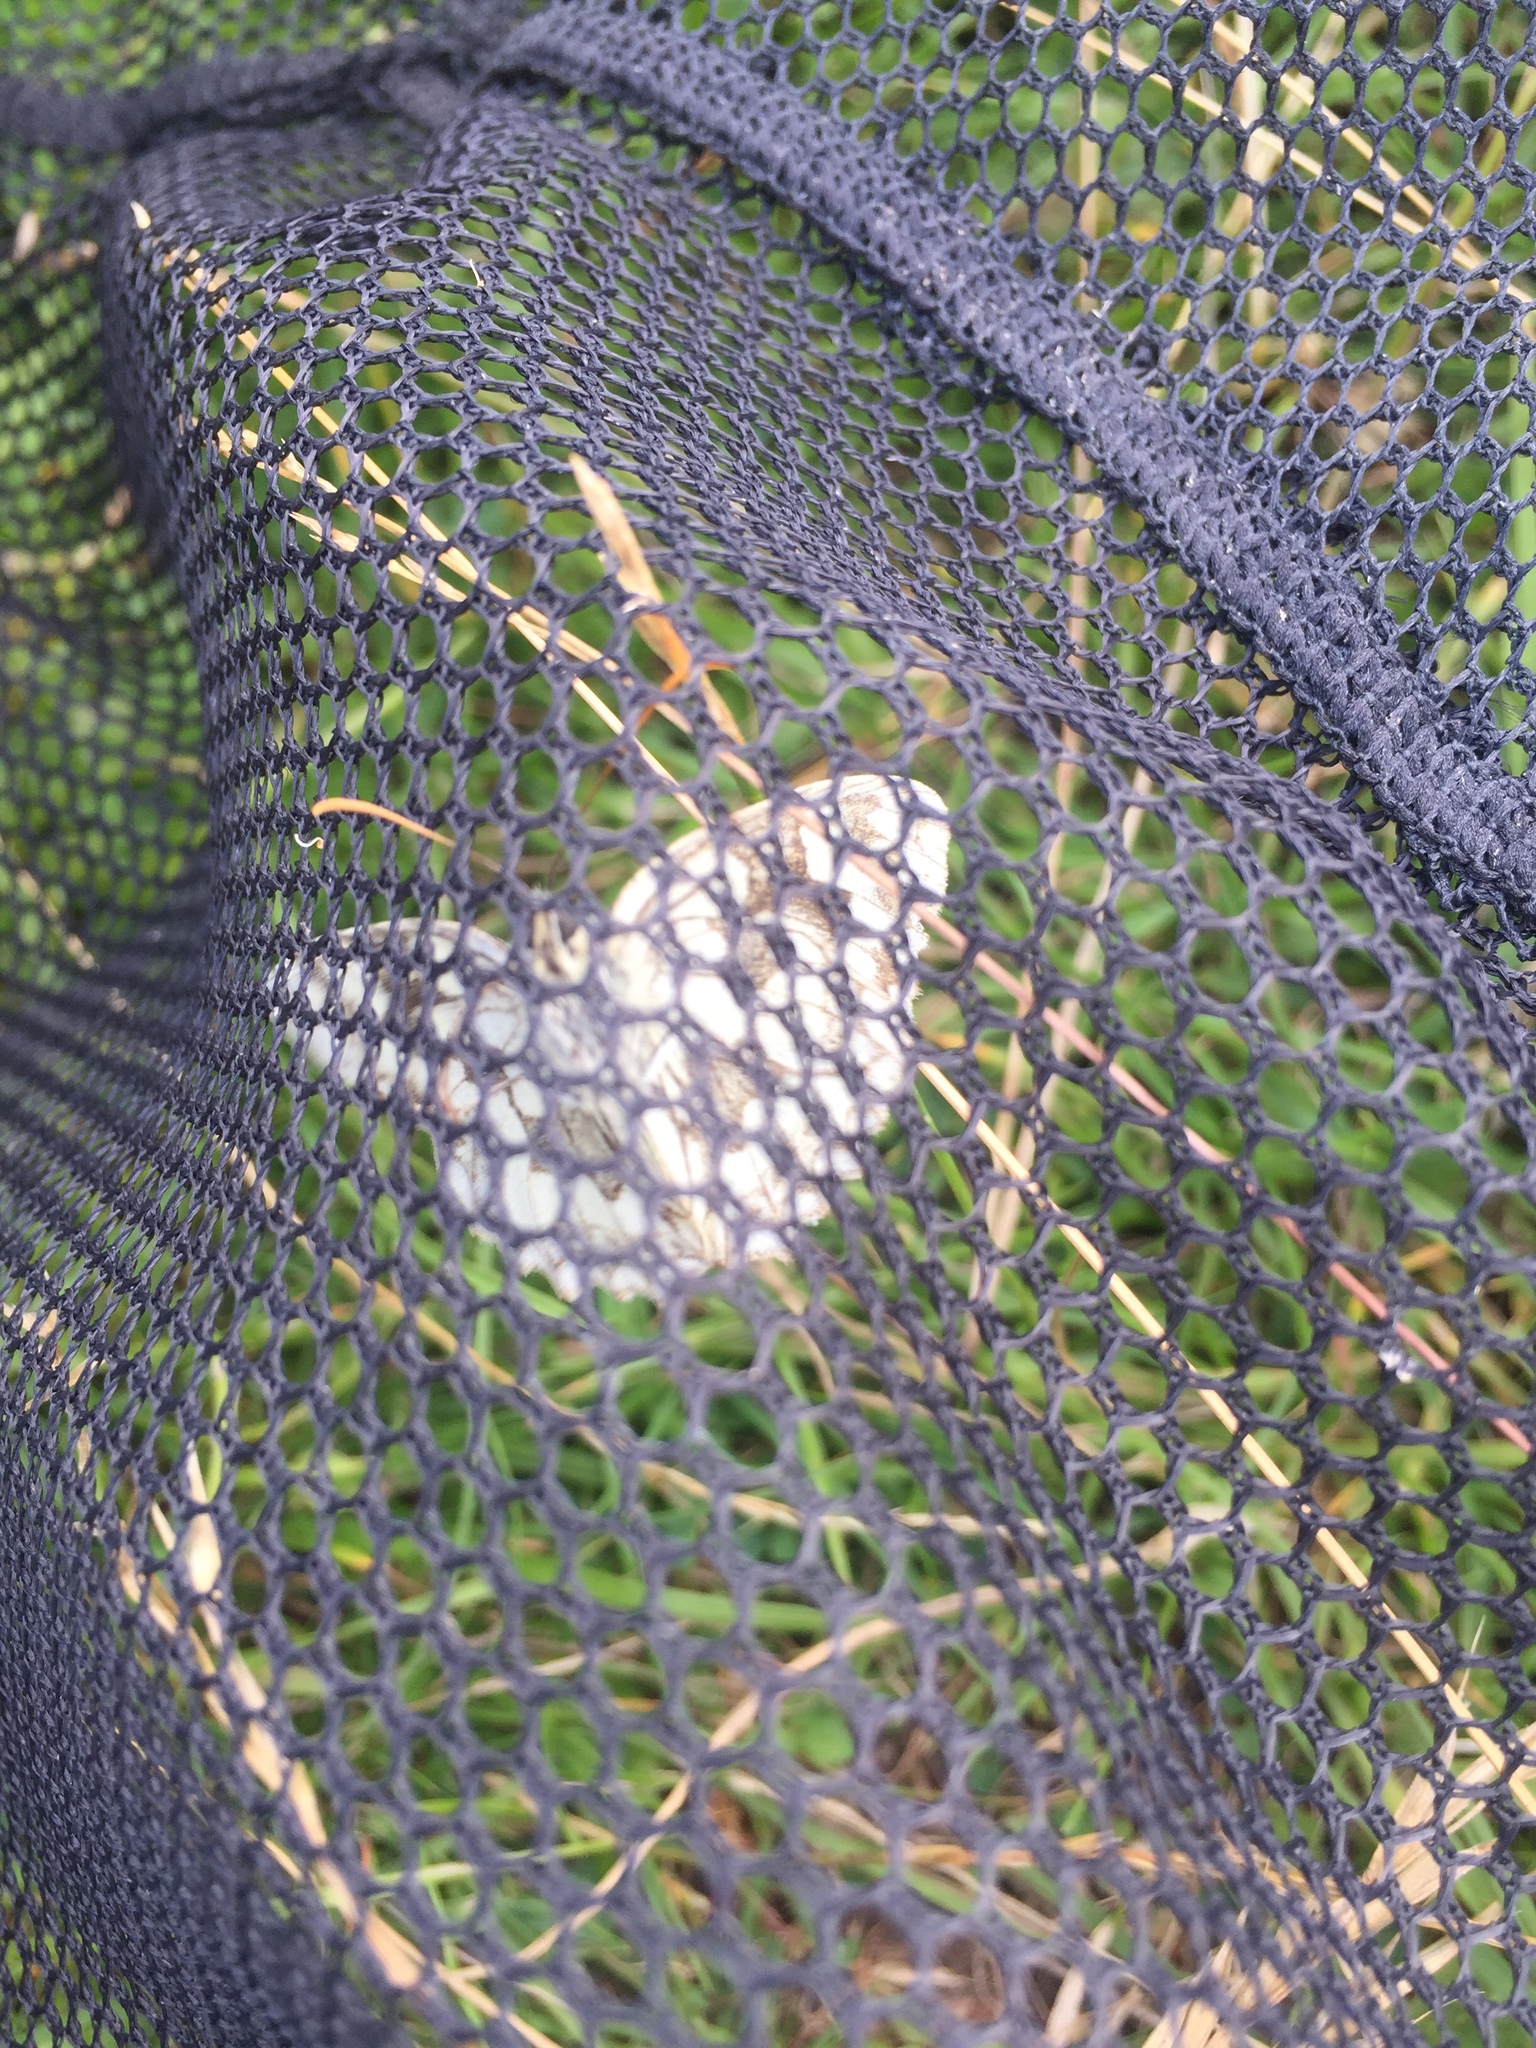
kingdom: Animalia
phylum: Arthropoda
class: Insecta
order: Lepidoptera
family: Nymphalidae
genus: Melanargia
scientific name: Melanargia galathea
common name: Marbled white
